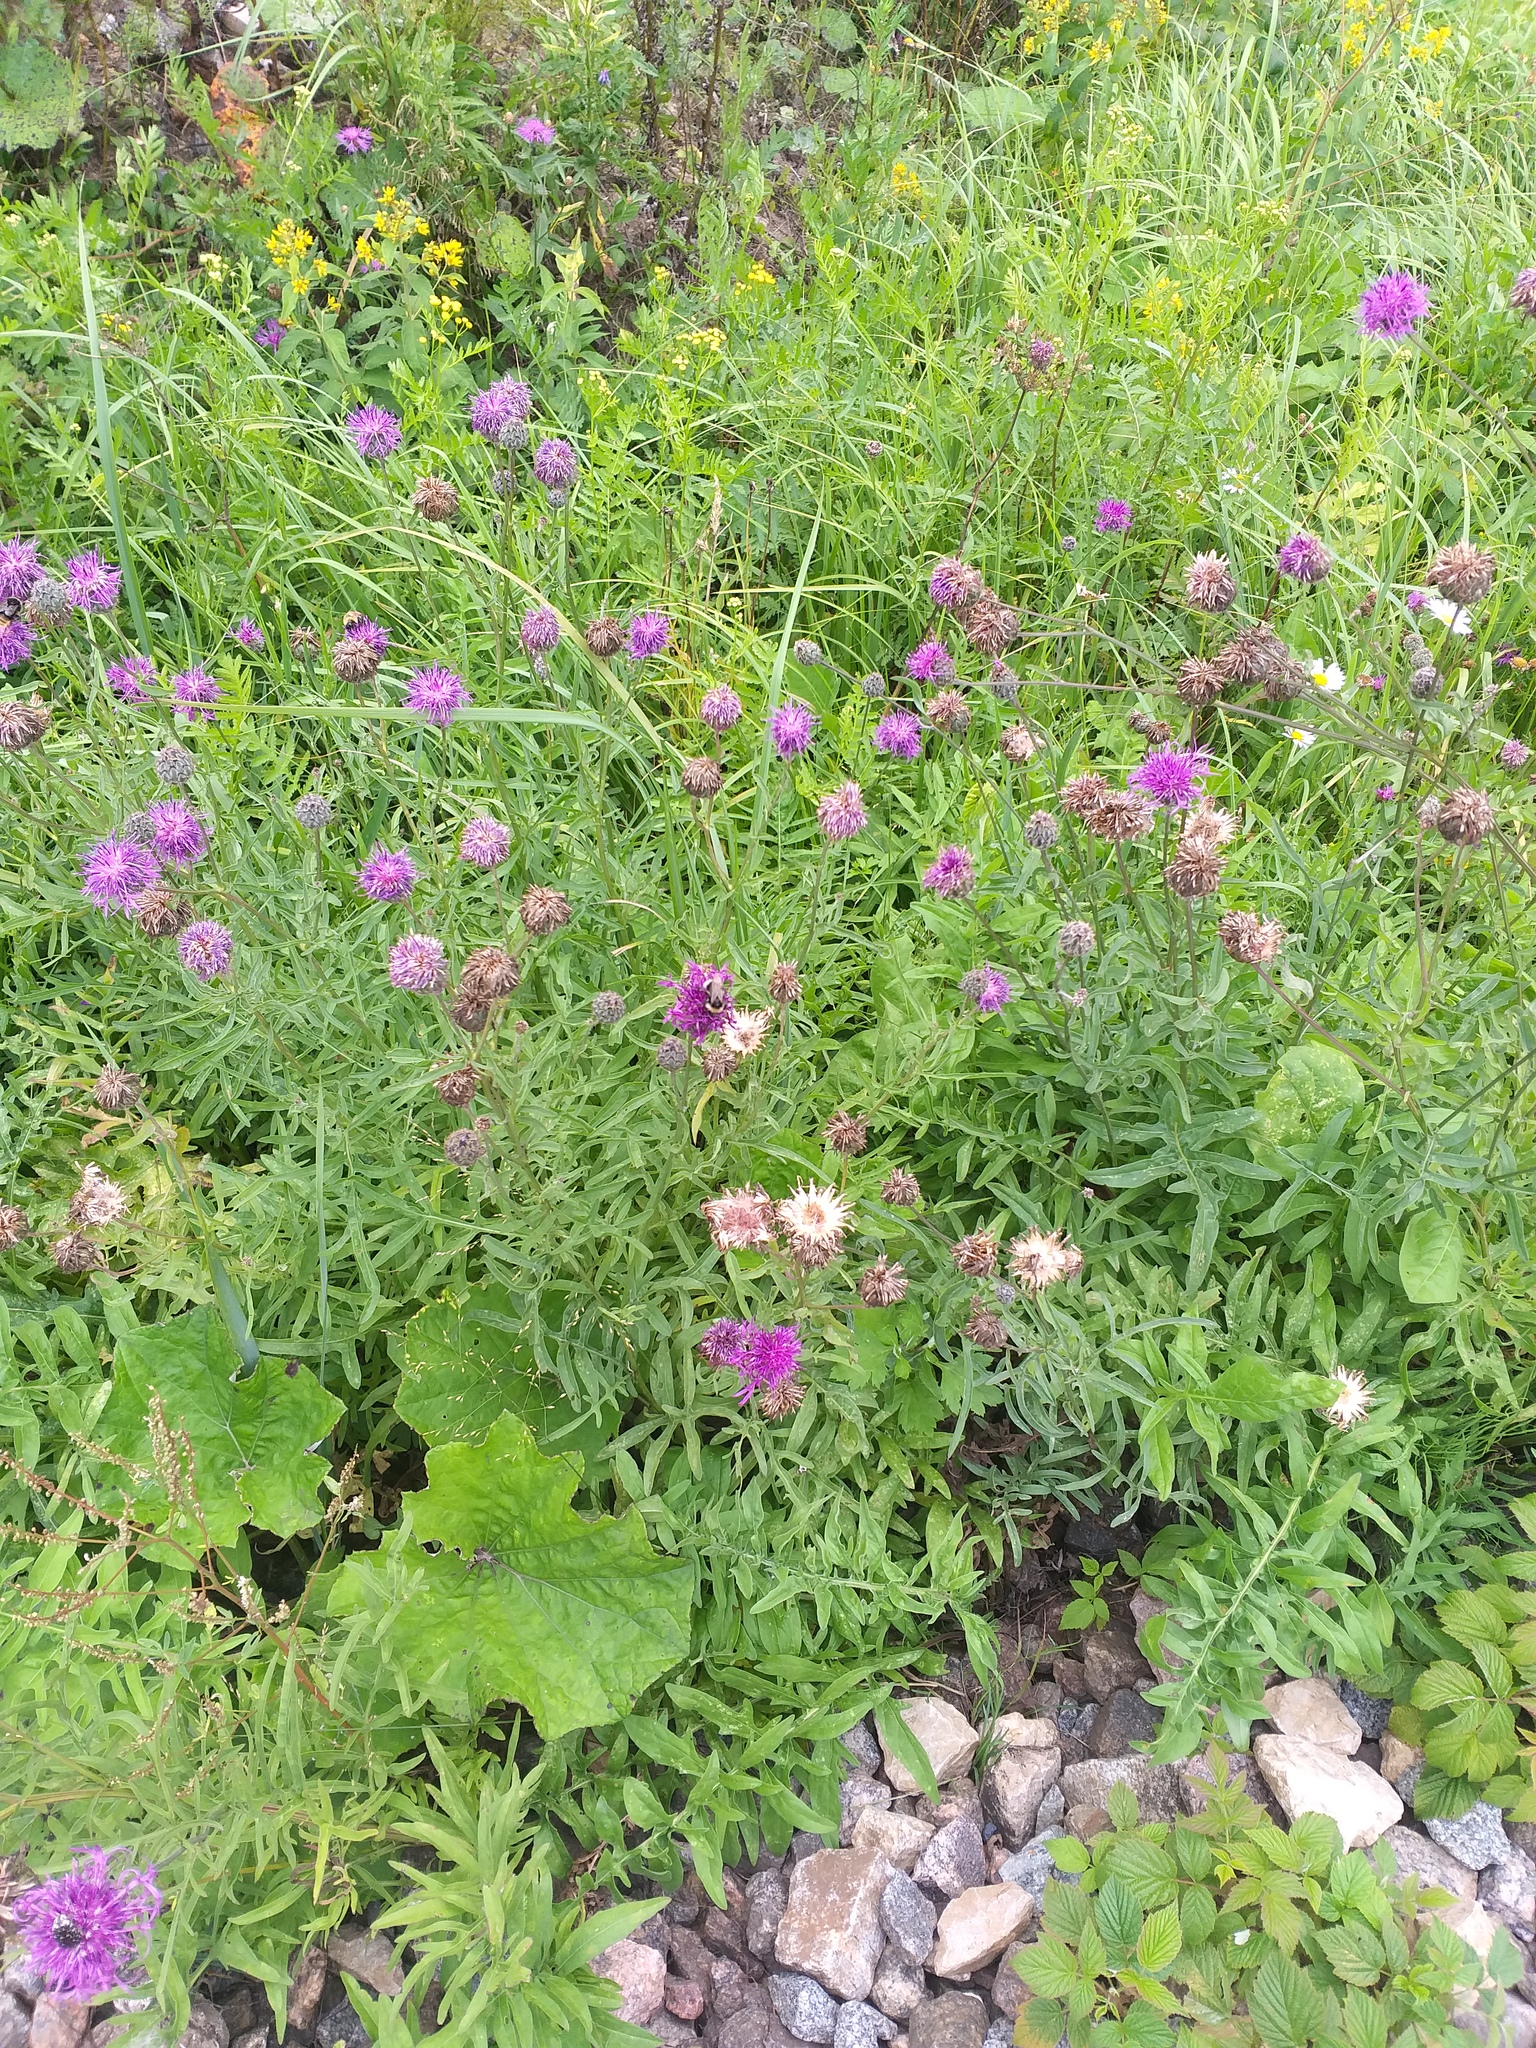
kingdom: Plantae
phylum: Tracheophyta
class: Magnoliopsida
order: Asterales
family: Asteraceae
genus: Centaurea
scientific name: Centaurea scabiosa
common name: Greater knapweed
